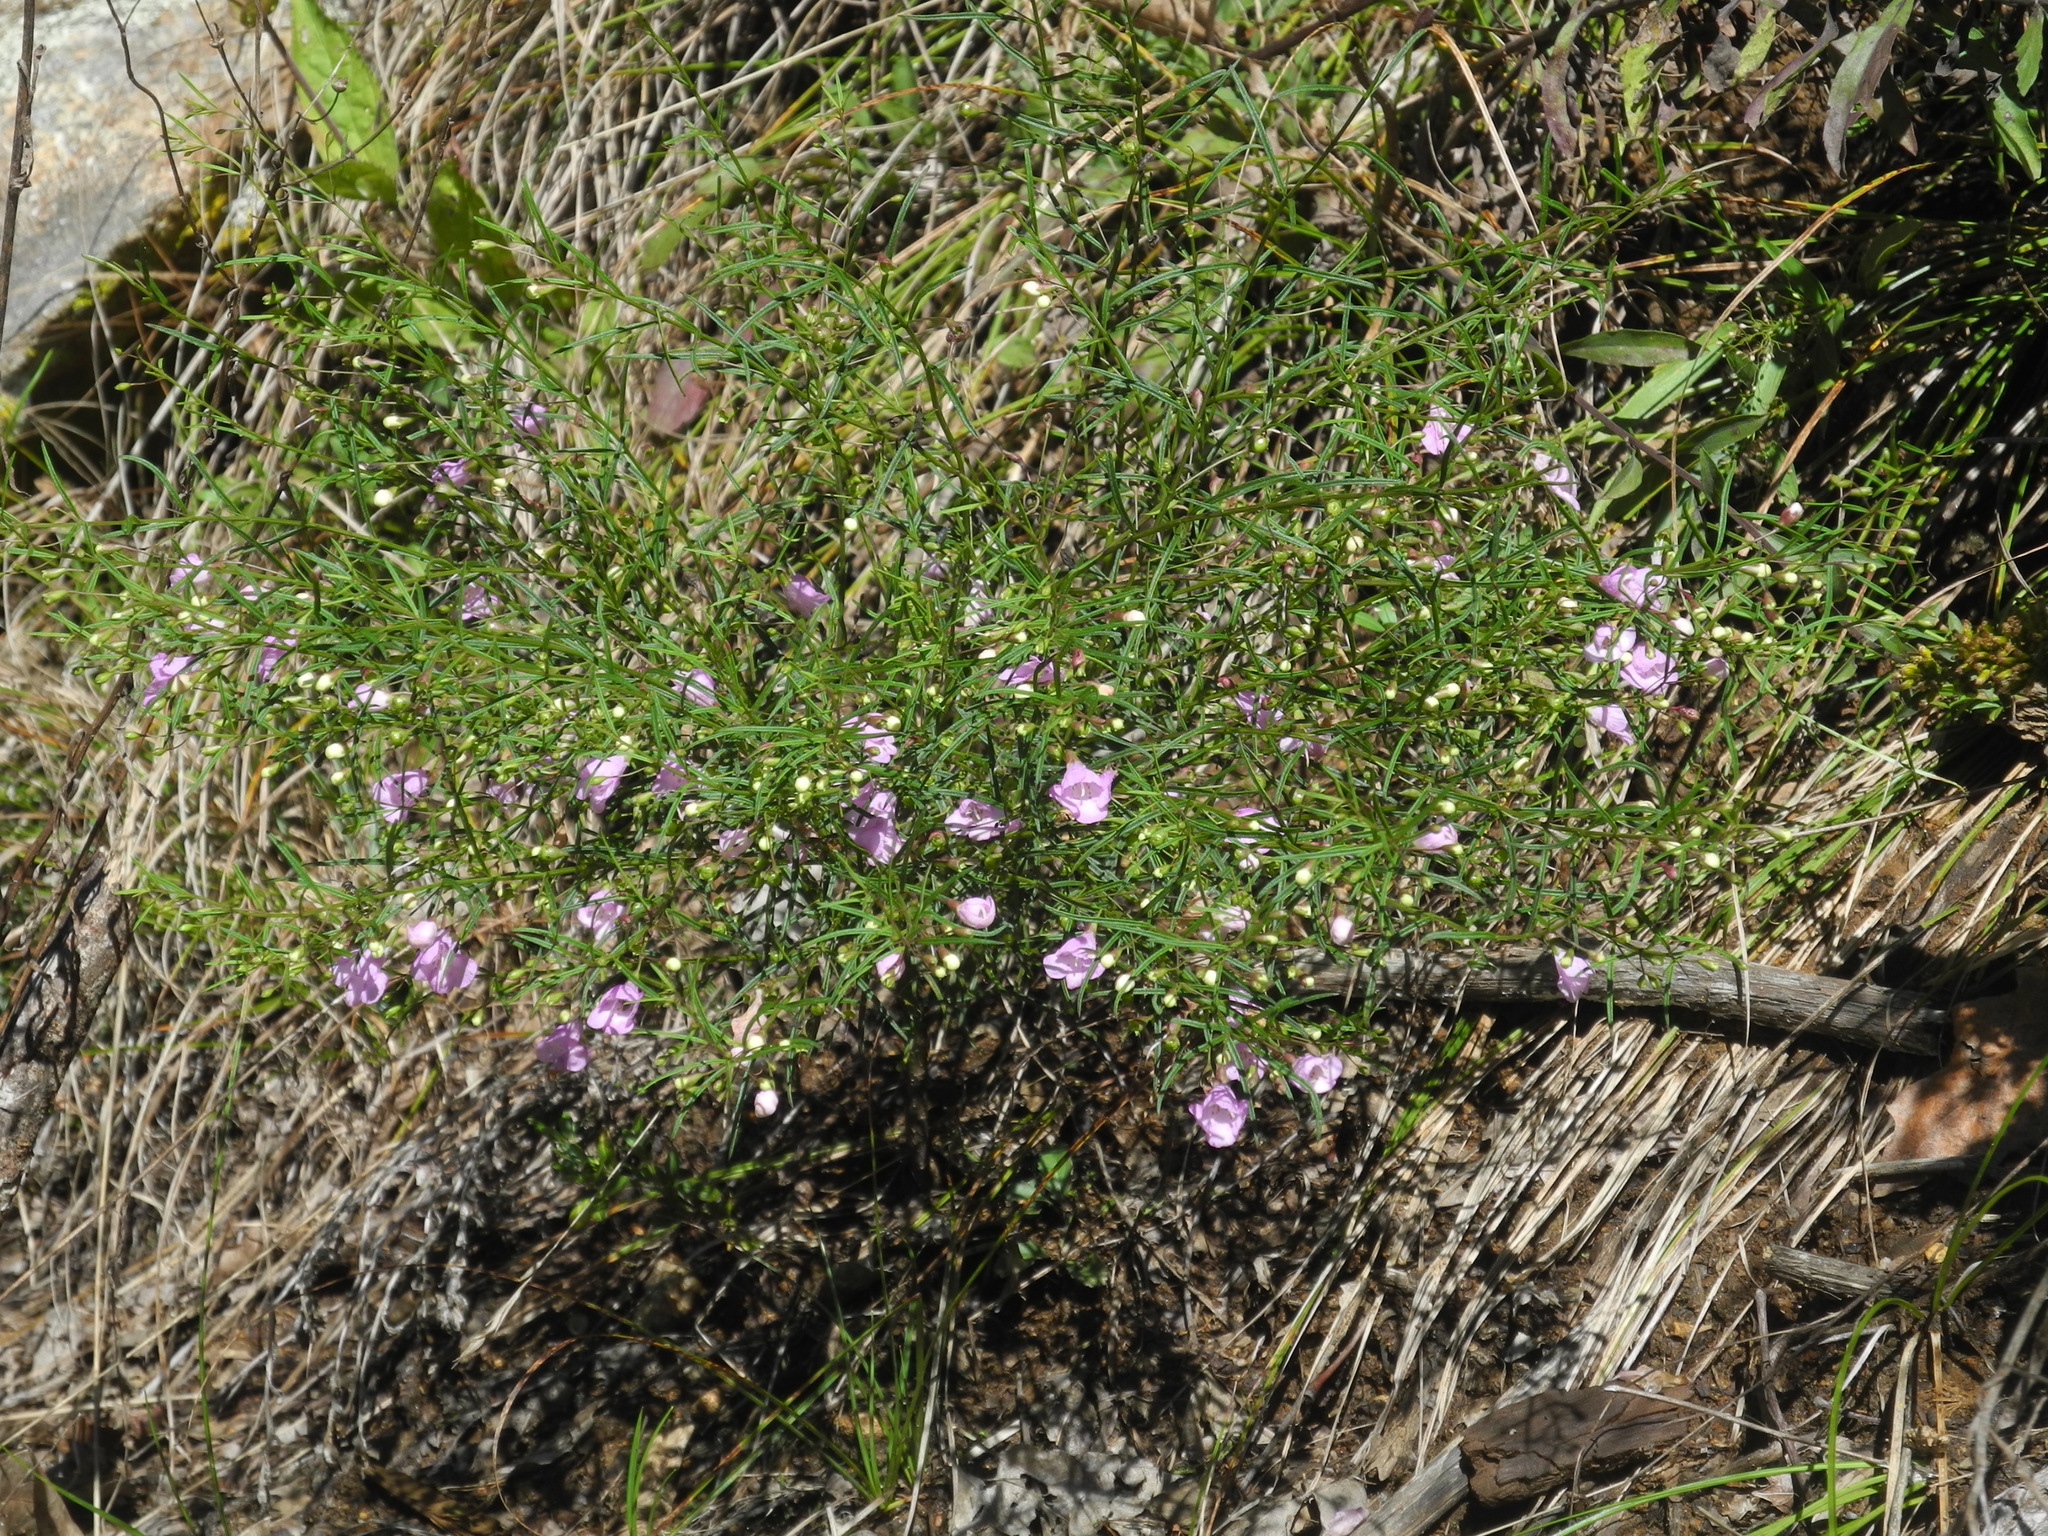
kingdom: Plantae
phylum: Tracheophyta
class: Magnoliopsida
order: Lamiales
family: Orobanchaceae
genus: Agalinis
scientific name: Agalinis tenuifolia
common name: Slender agalinis
